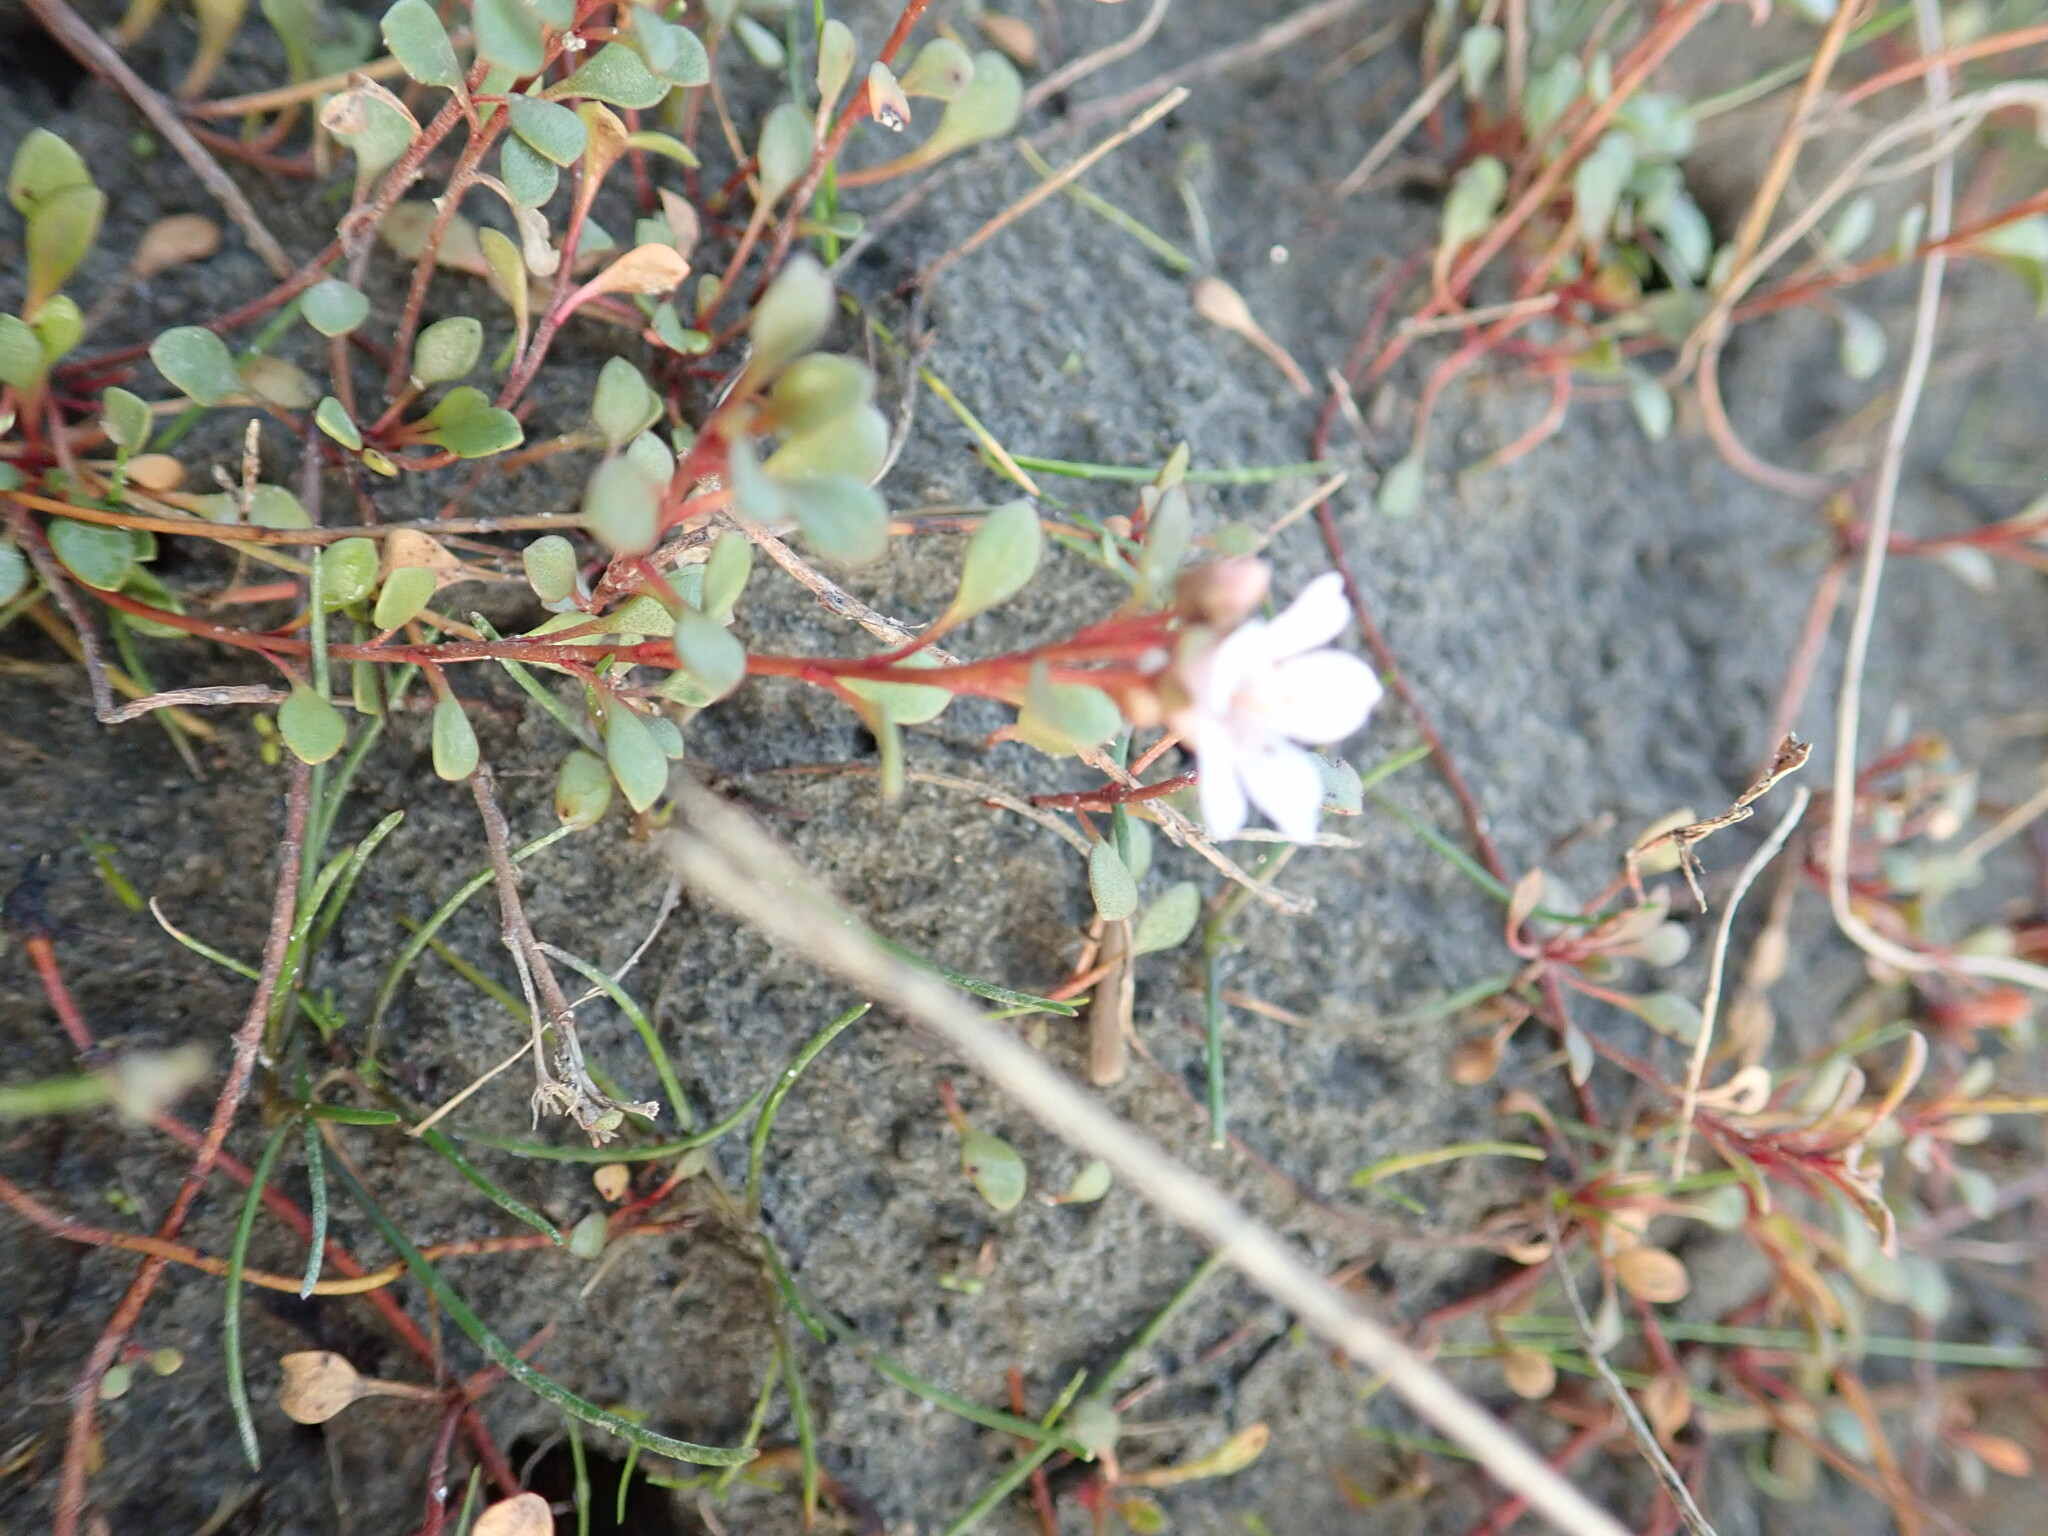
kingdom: Plantae
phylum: Tracheophyta
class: Magnoliopsida
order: Ericales
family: Primulaceae
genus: Samolus
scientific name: Samolus repens
